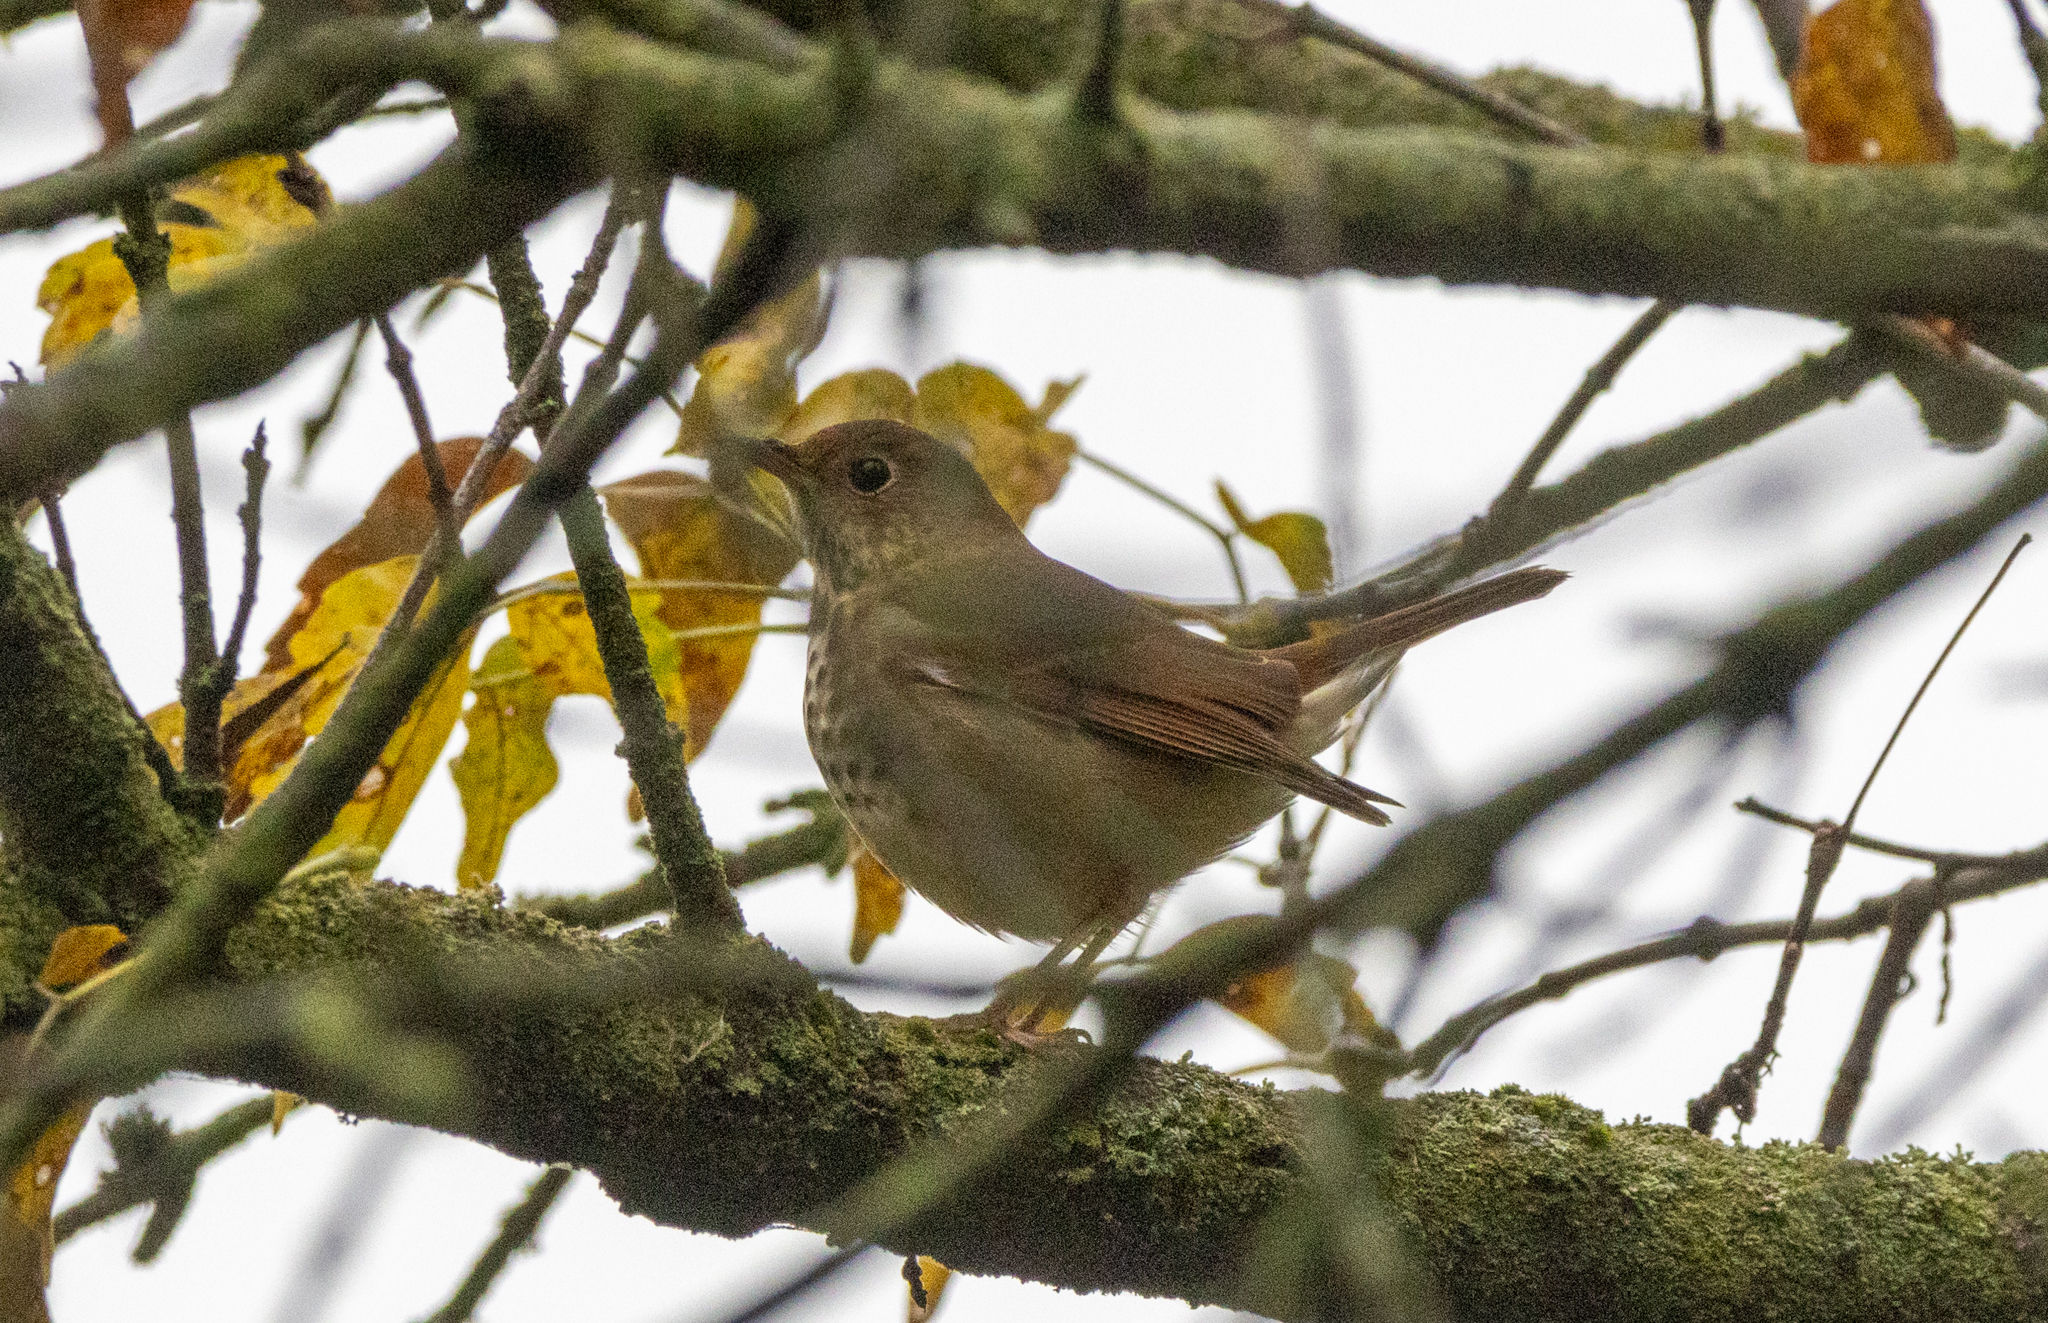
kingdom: Animalia
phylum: Chordata
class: Aves
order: Passeriformes
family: Turdidae
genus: Catharus
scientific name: Catharus guttatus
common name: Hermit thrush
